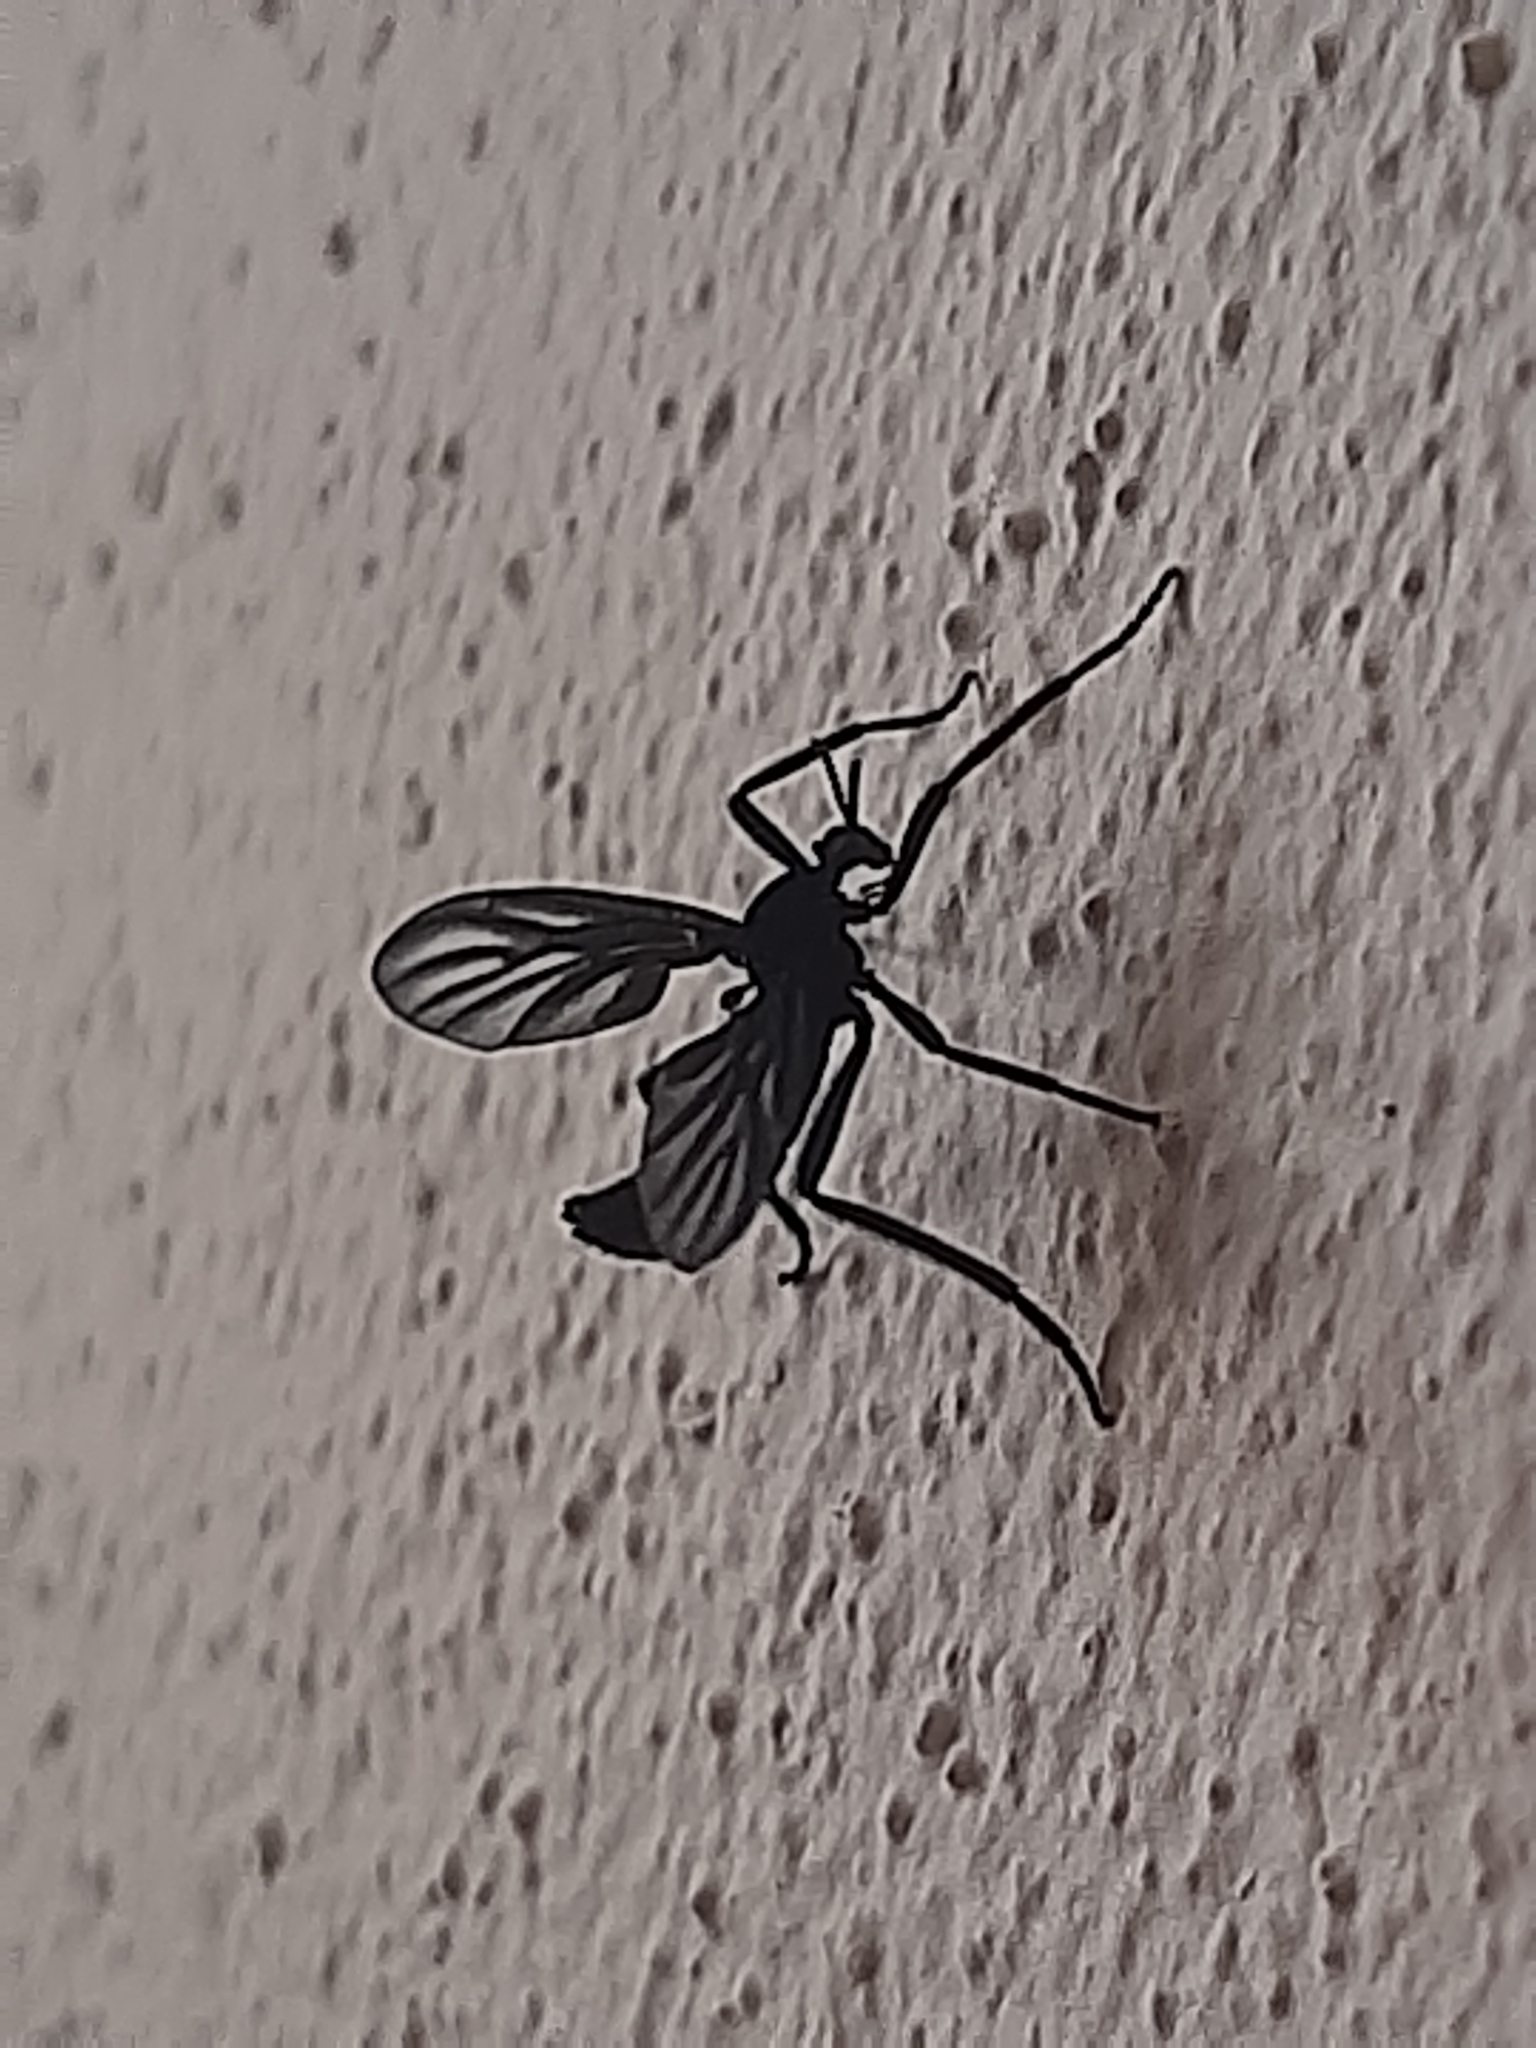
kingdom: Animalia
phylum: Arthropoda
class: Insecta
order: Diptera
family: Bibionidae
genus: Plecia
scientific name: Plecia plagiata
